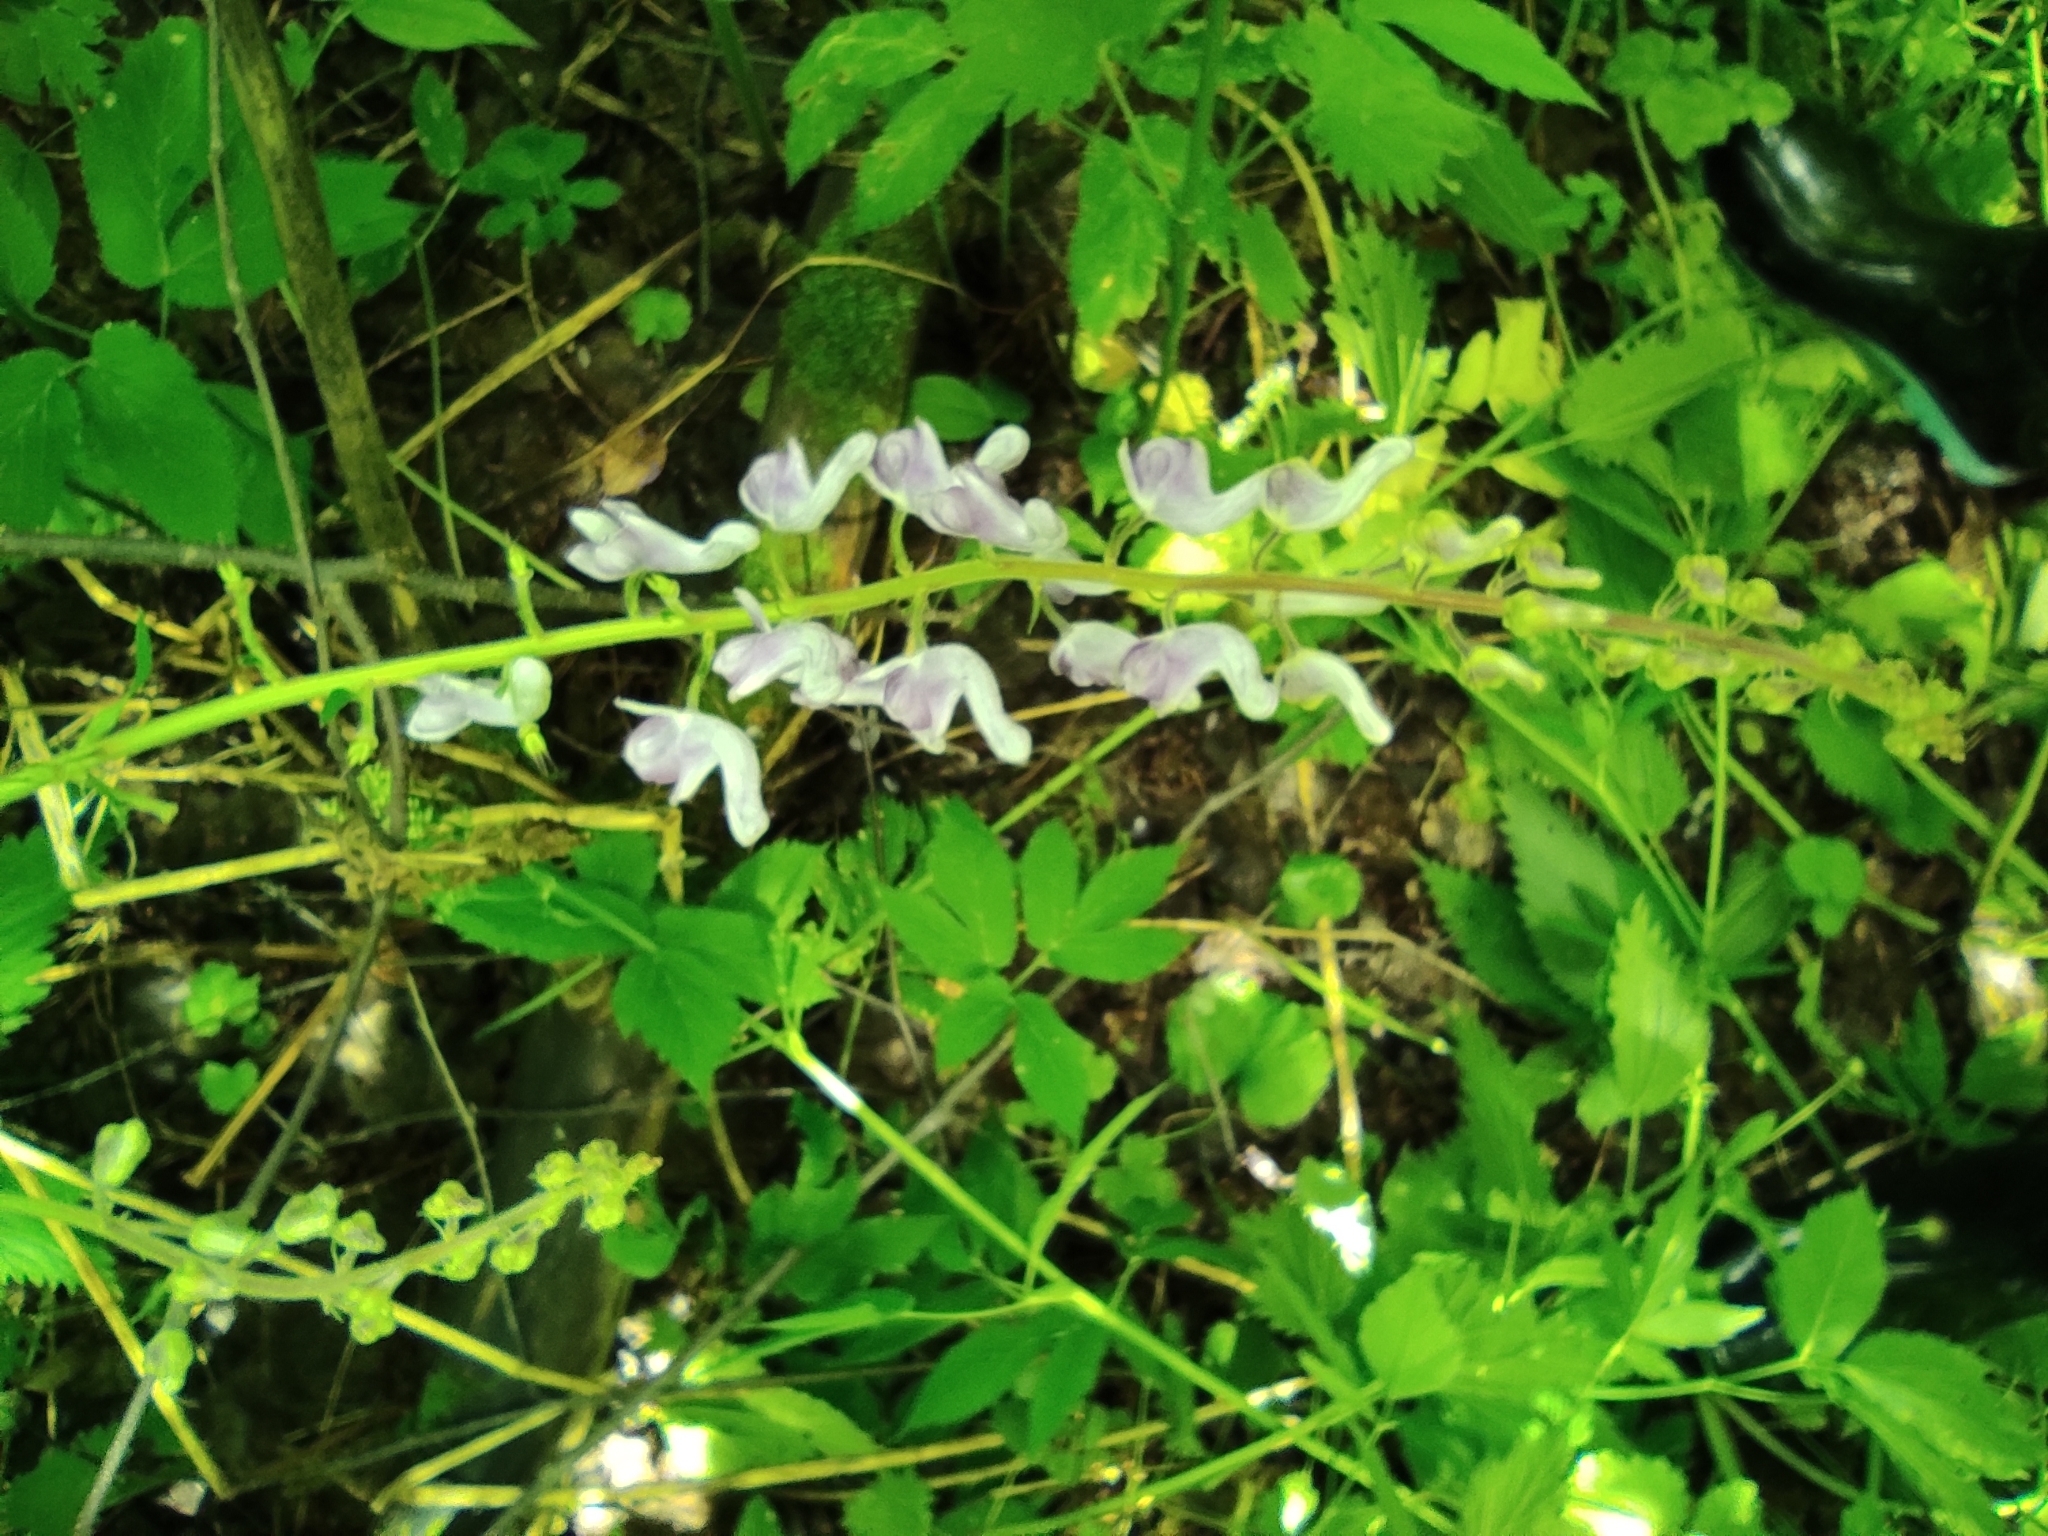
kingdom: Plantae
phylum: Tracheophyta
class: Magnoliopsida
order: Ranunculales
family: Ranunculaceae
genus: Aconitum
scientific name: Aconitum septentrionale
